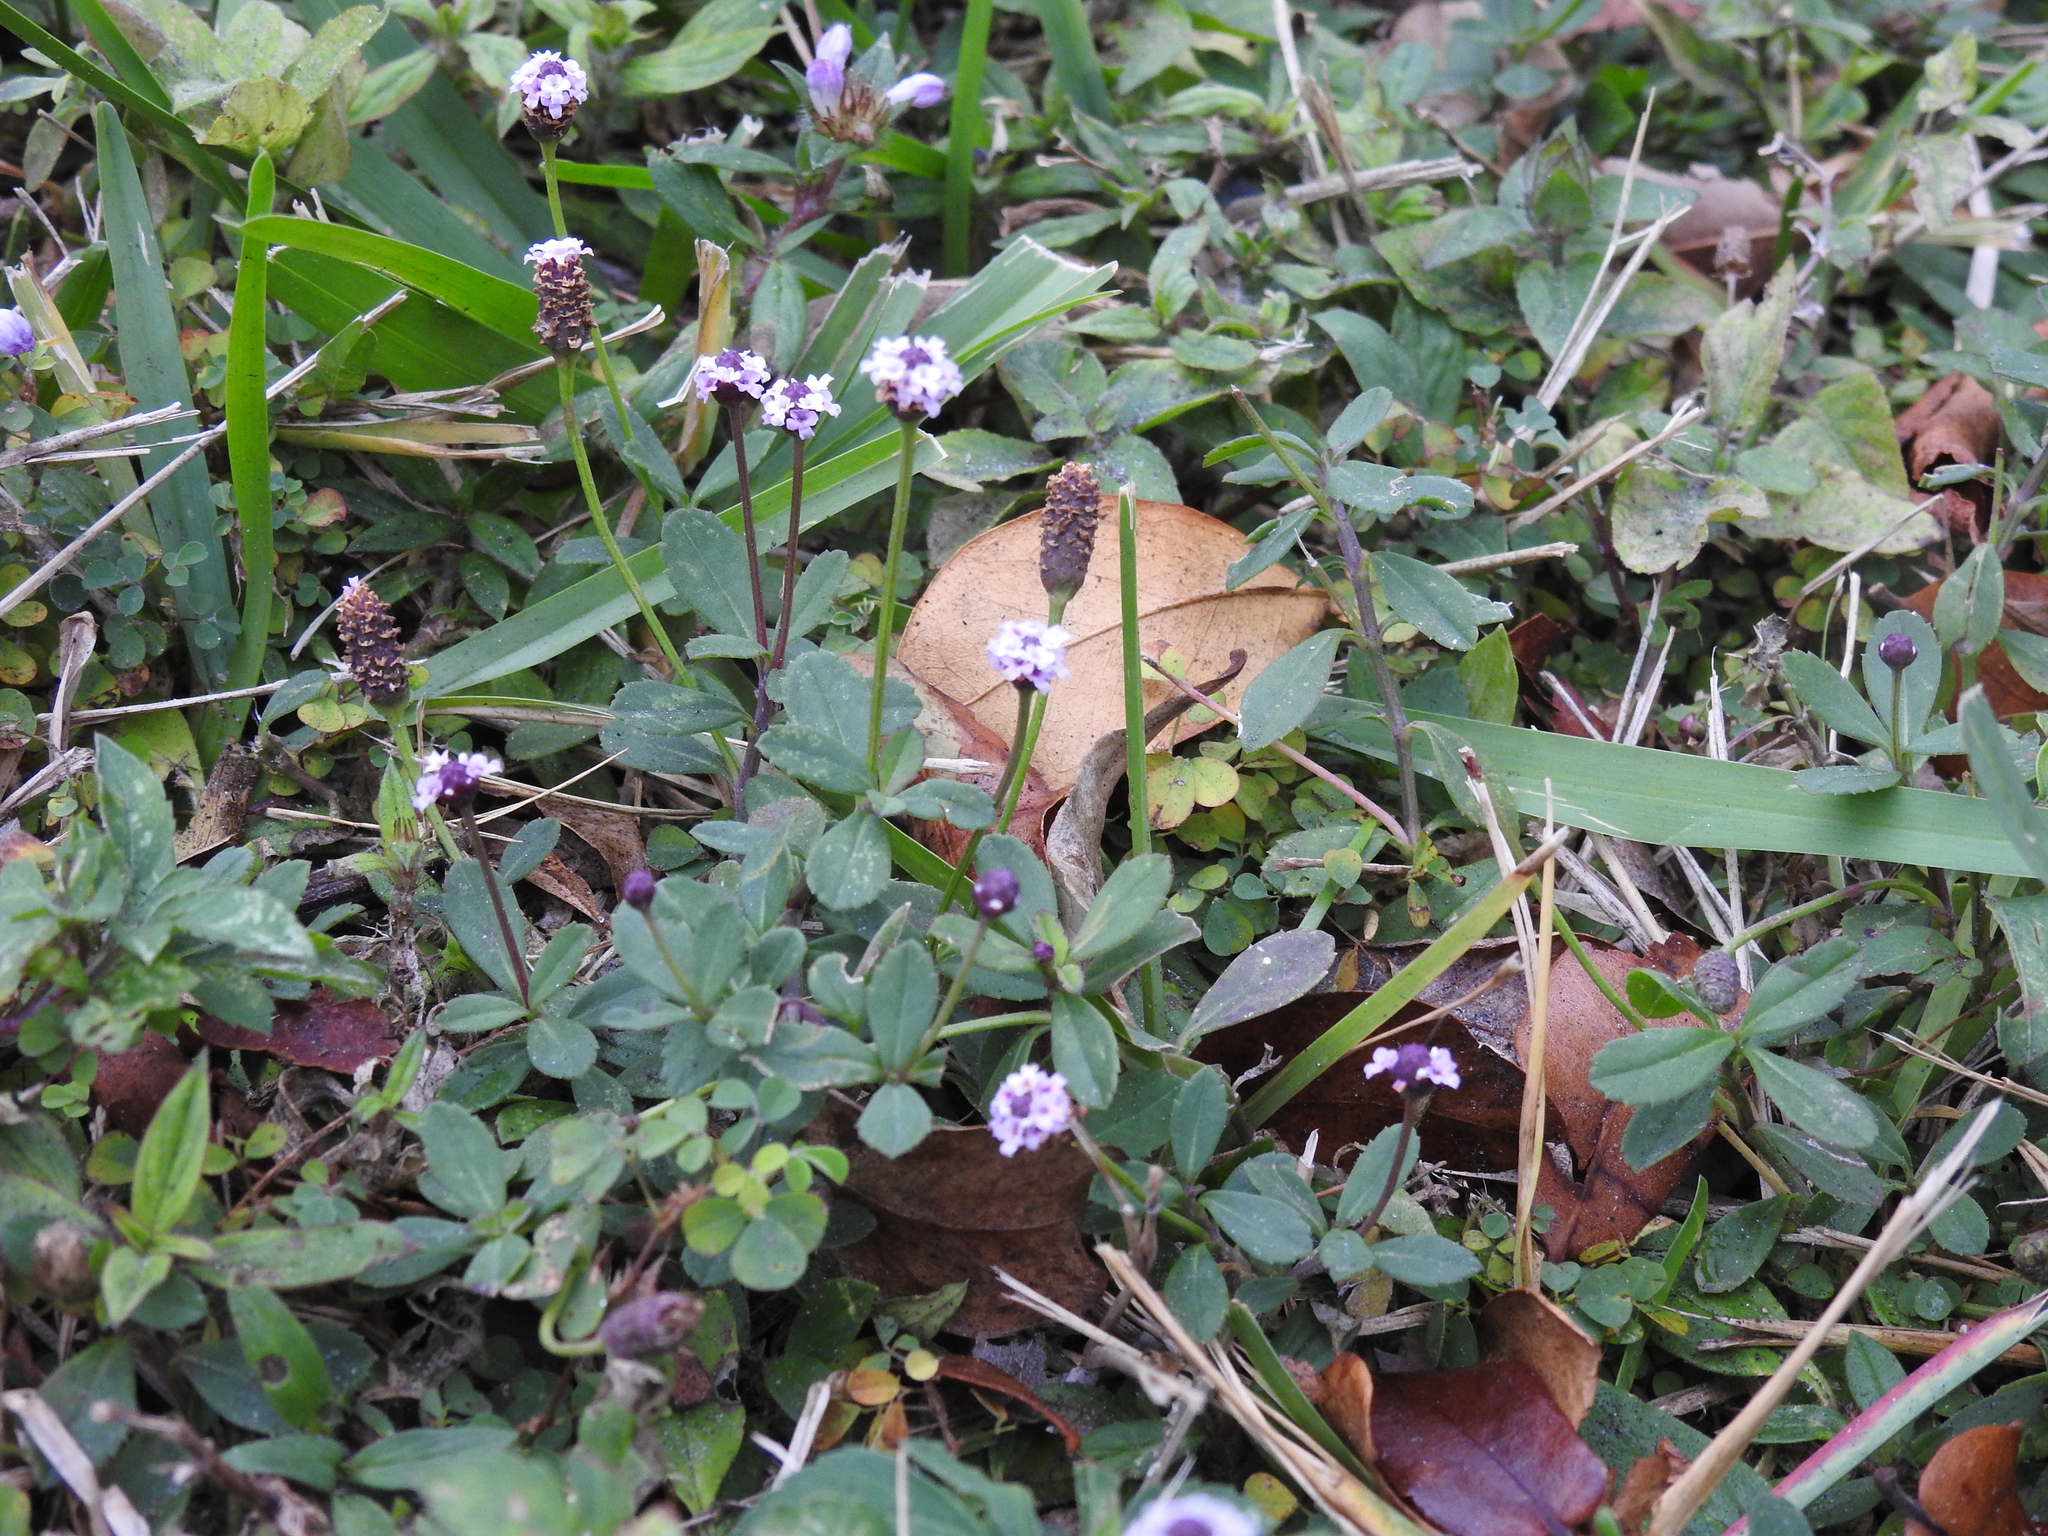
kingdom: Plantae
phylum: Tracheophyta
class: Magnoliopsida
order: Lamiales
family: Verbenaceae
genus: Phyla
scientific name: Phyla nodiflora
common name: Frogfruit
